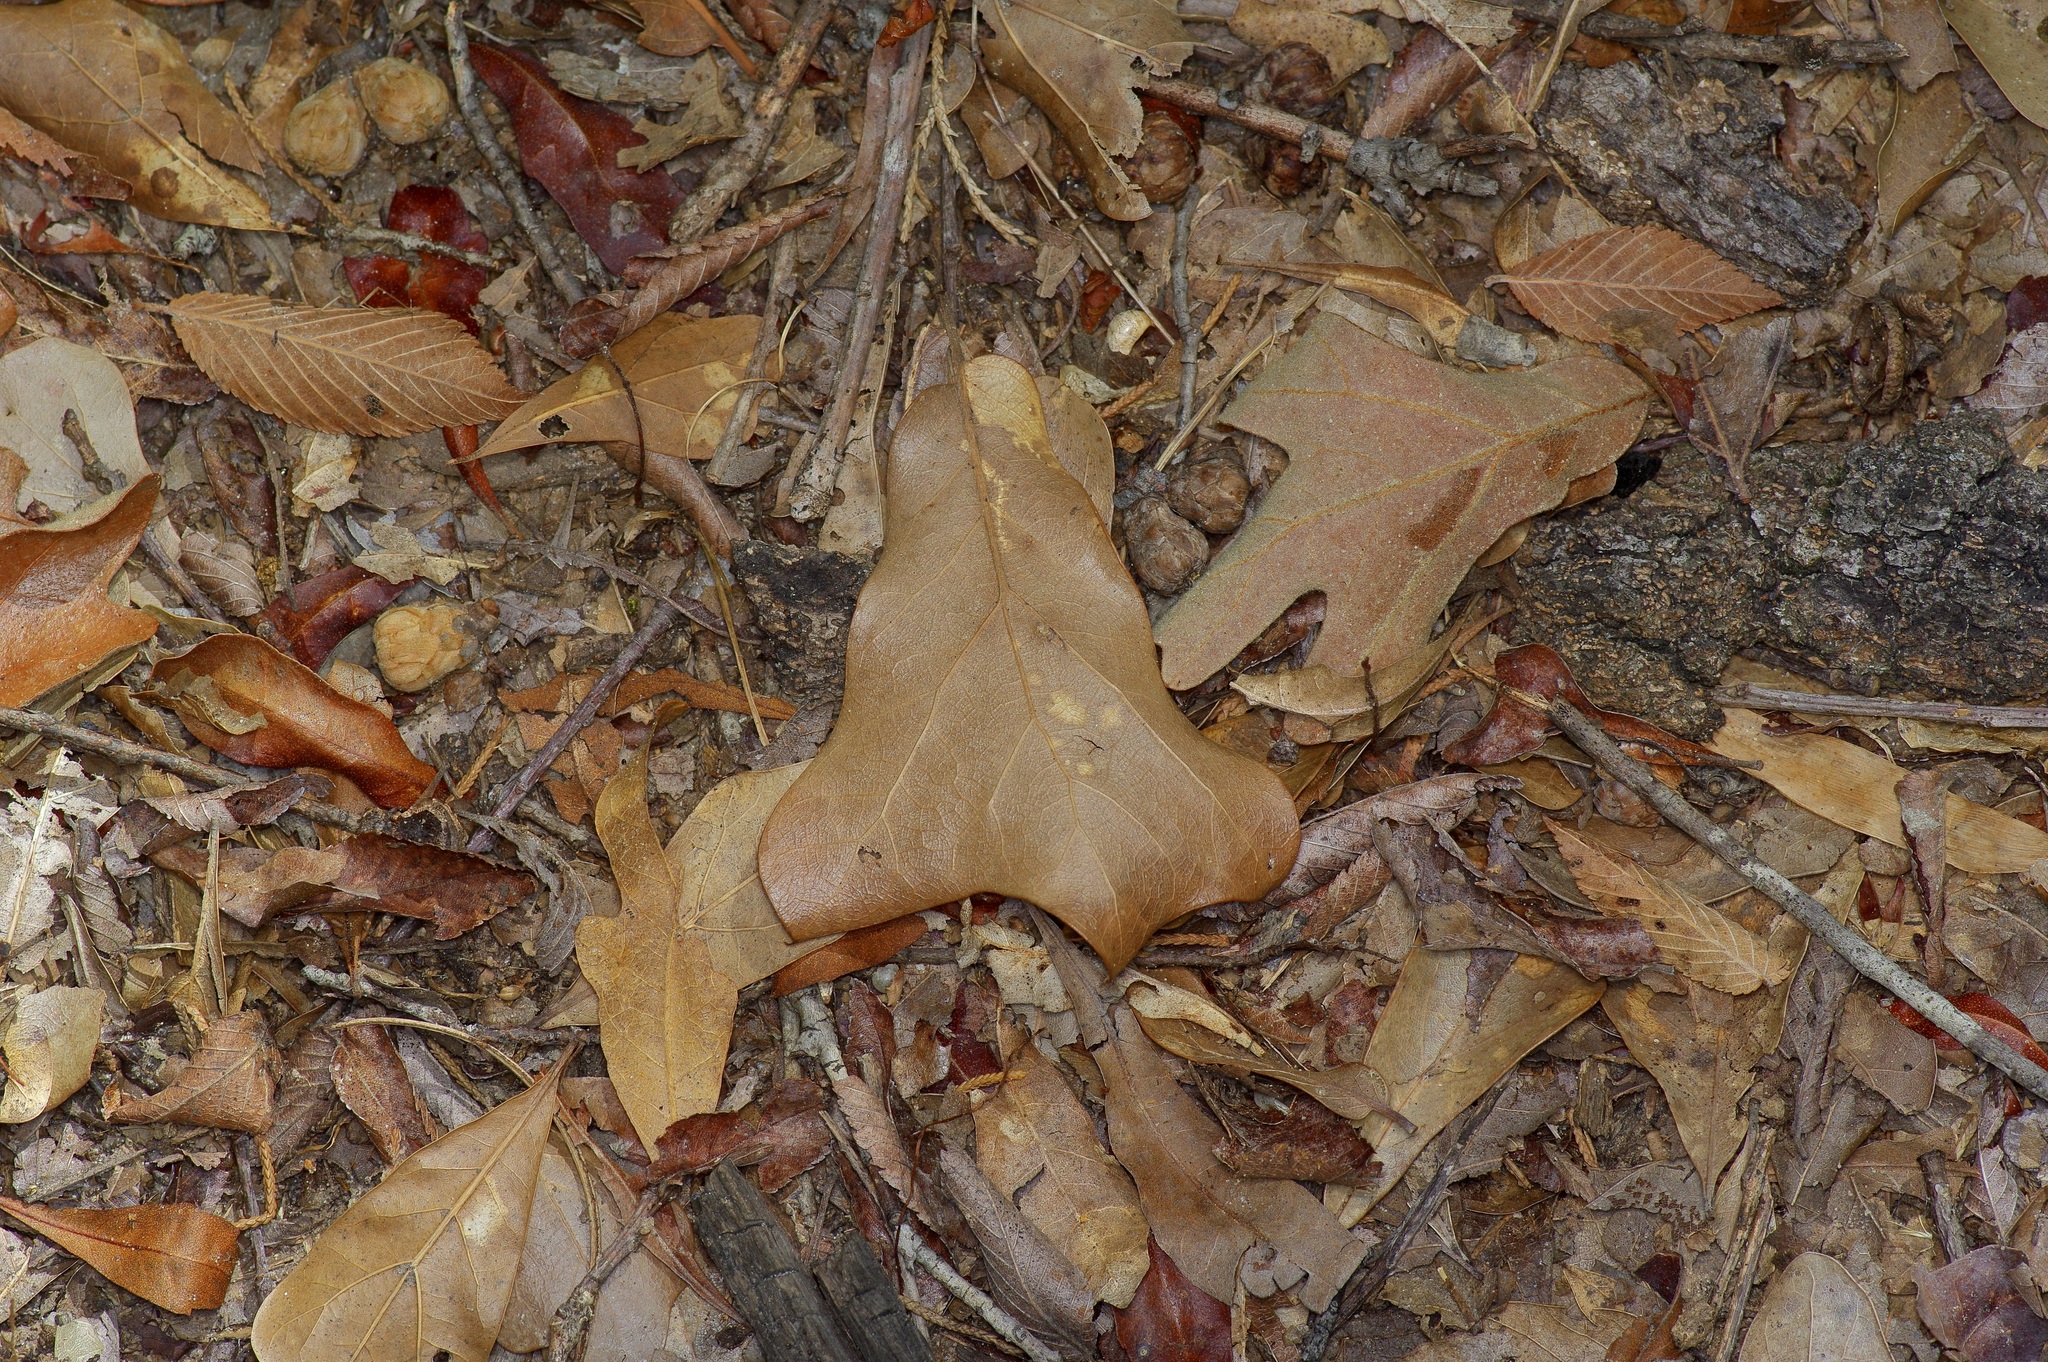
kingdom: Plantae
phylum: Tracheophyta
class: Magnoliopsida
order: Fagales
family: Fagaceae
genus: Quercus
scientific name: Quercus marilandica
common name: Blackjack oak
